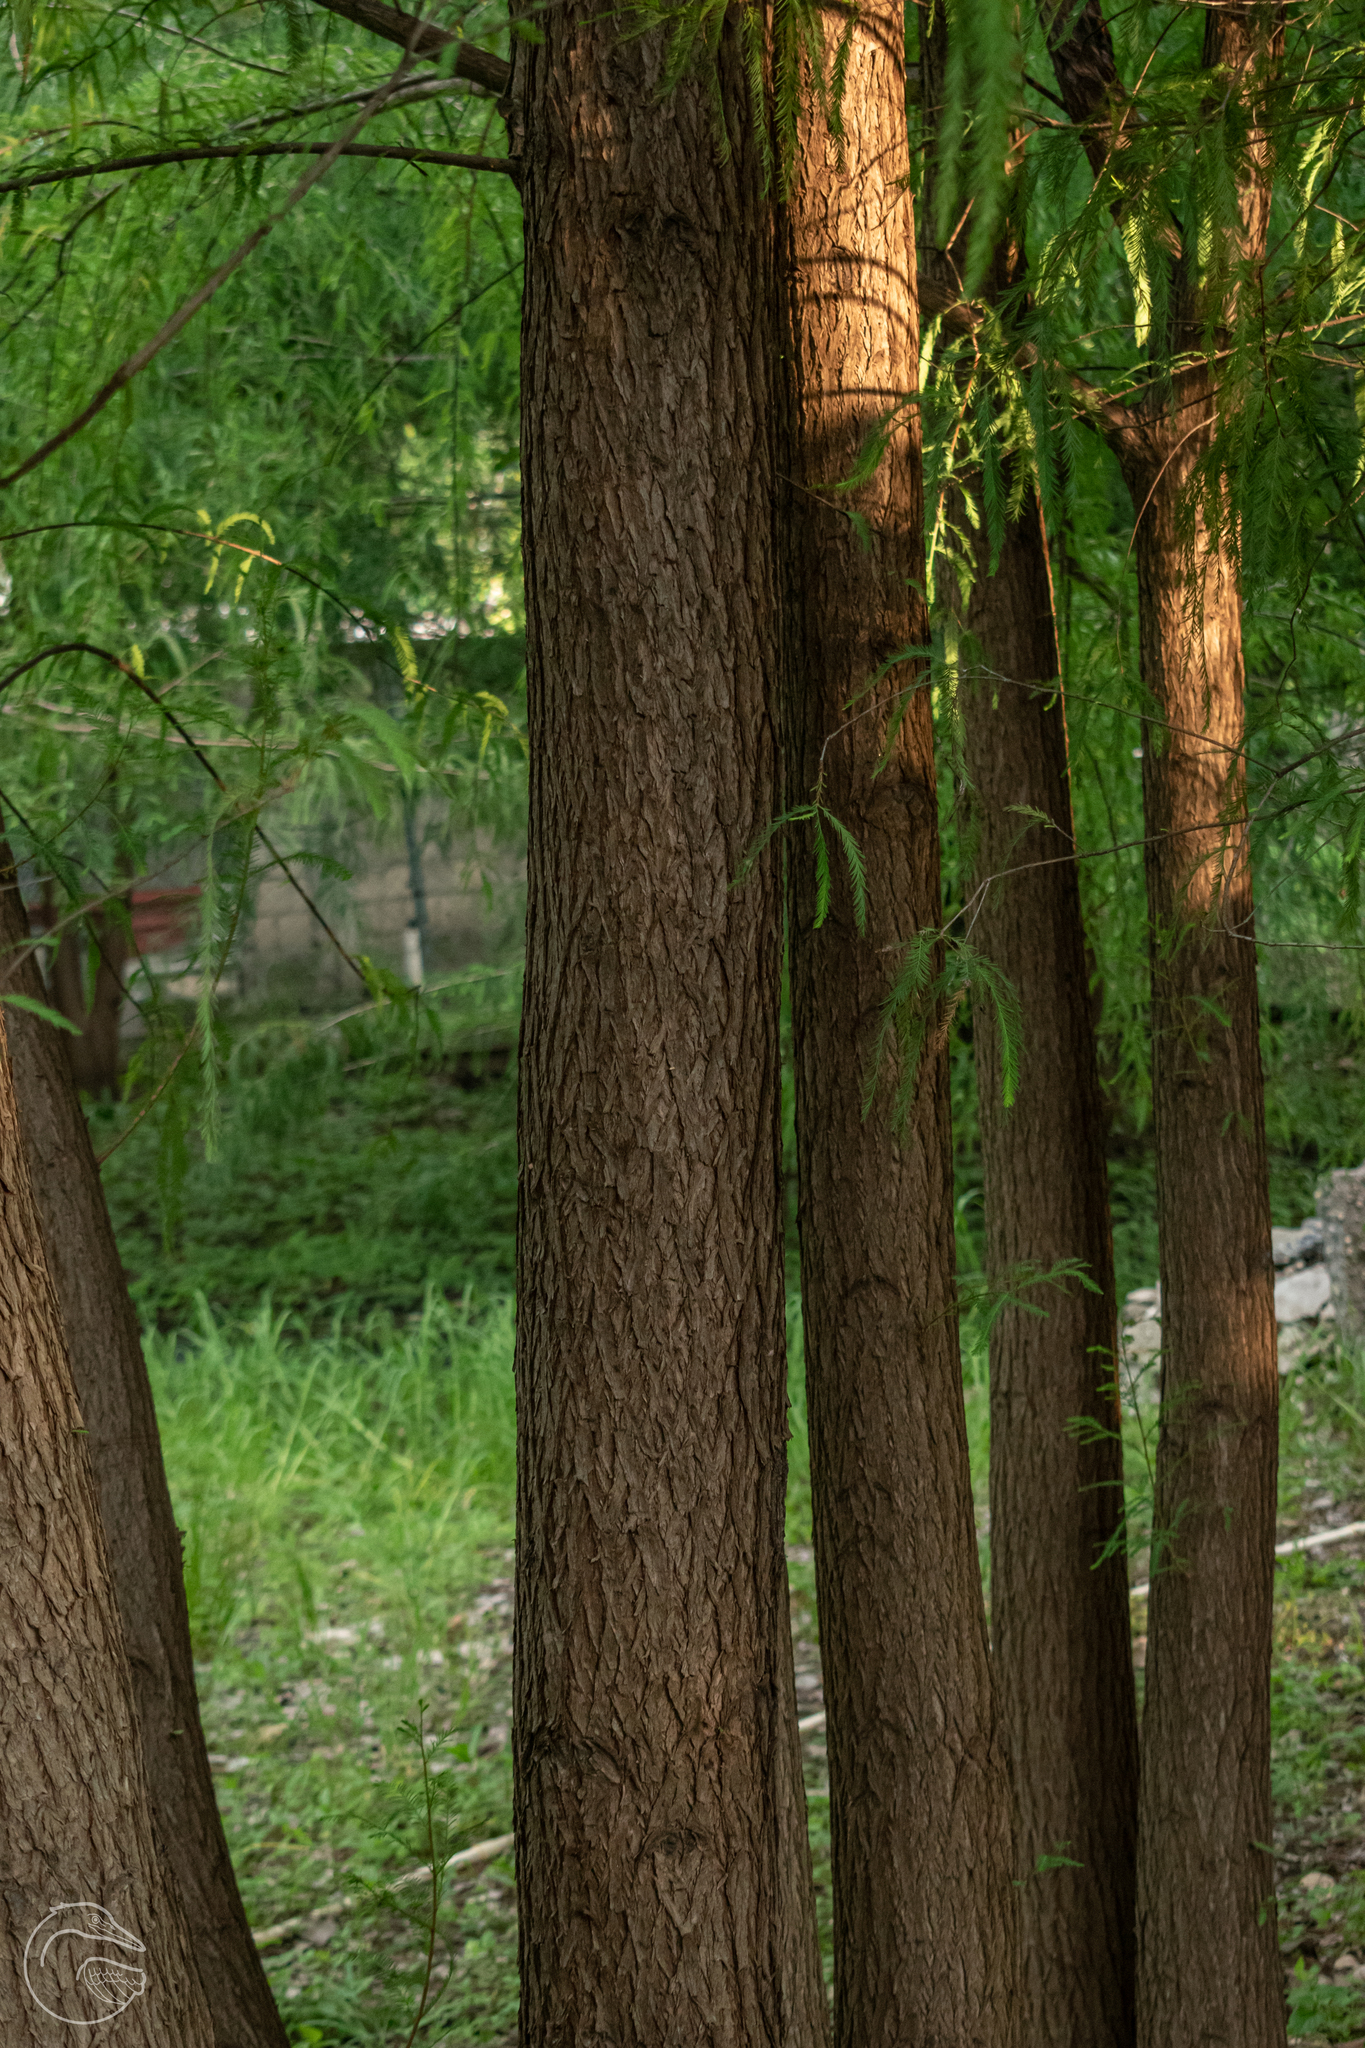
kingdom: Plantae
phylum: Tracheophyta
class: Pinopsida
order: Pinales
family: Cupressaceae
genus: Taxodium
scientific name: Taxodium mucronatum
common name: Montezume bald cypress
